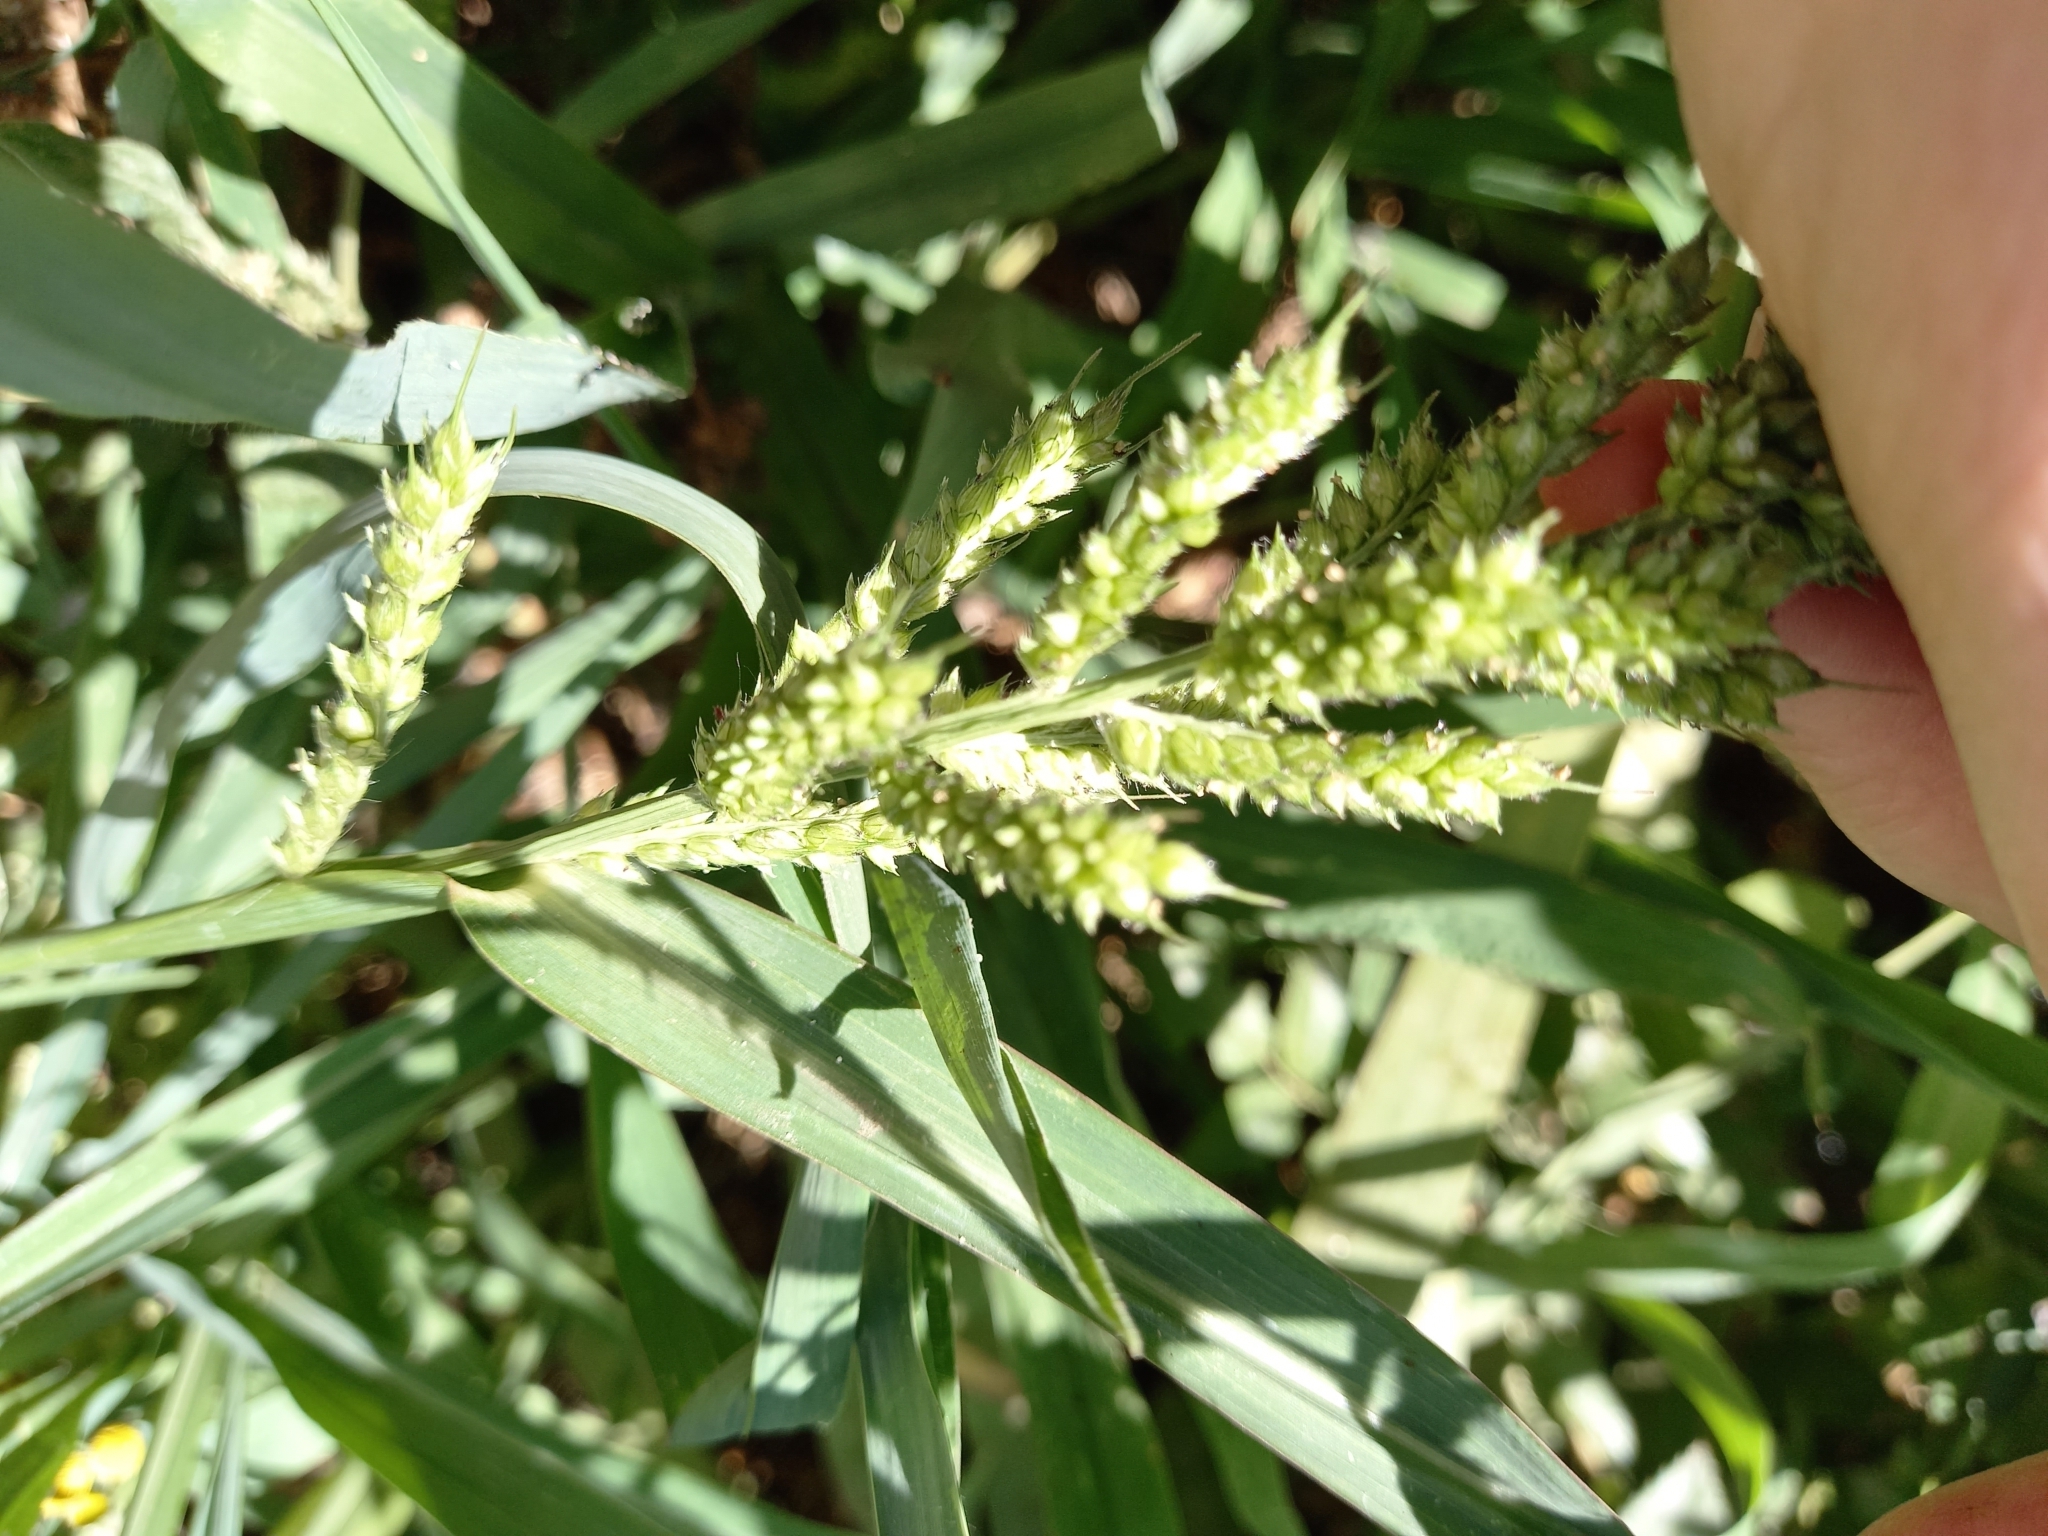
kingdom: Plantae
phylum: Tracheophyta
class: Liliopsida
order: Poales
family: Poaceae
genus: Echinochloa
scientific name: Echinochloa crus-galli
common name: Cockspur
